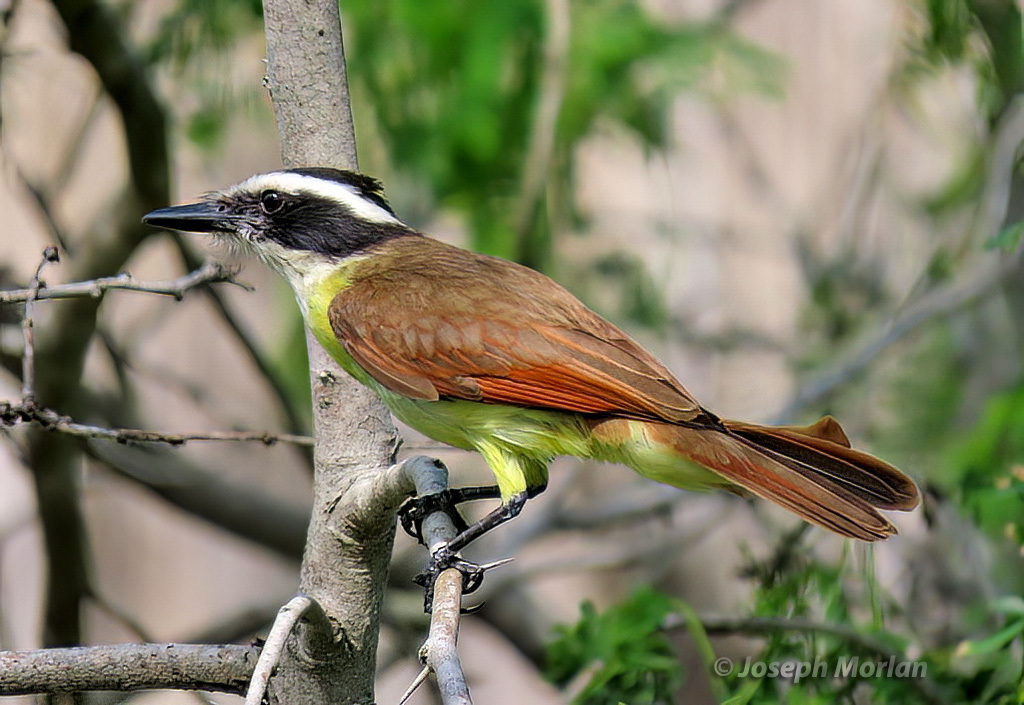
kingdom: Animalia
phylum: Chordata
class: Aves
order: Passeriformes
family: Tyrannidae
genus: Pitangus
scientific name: Pitangus sulphuratus
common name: Great kiskadee
